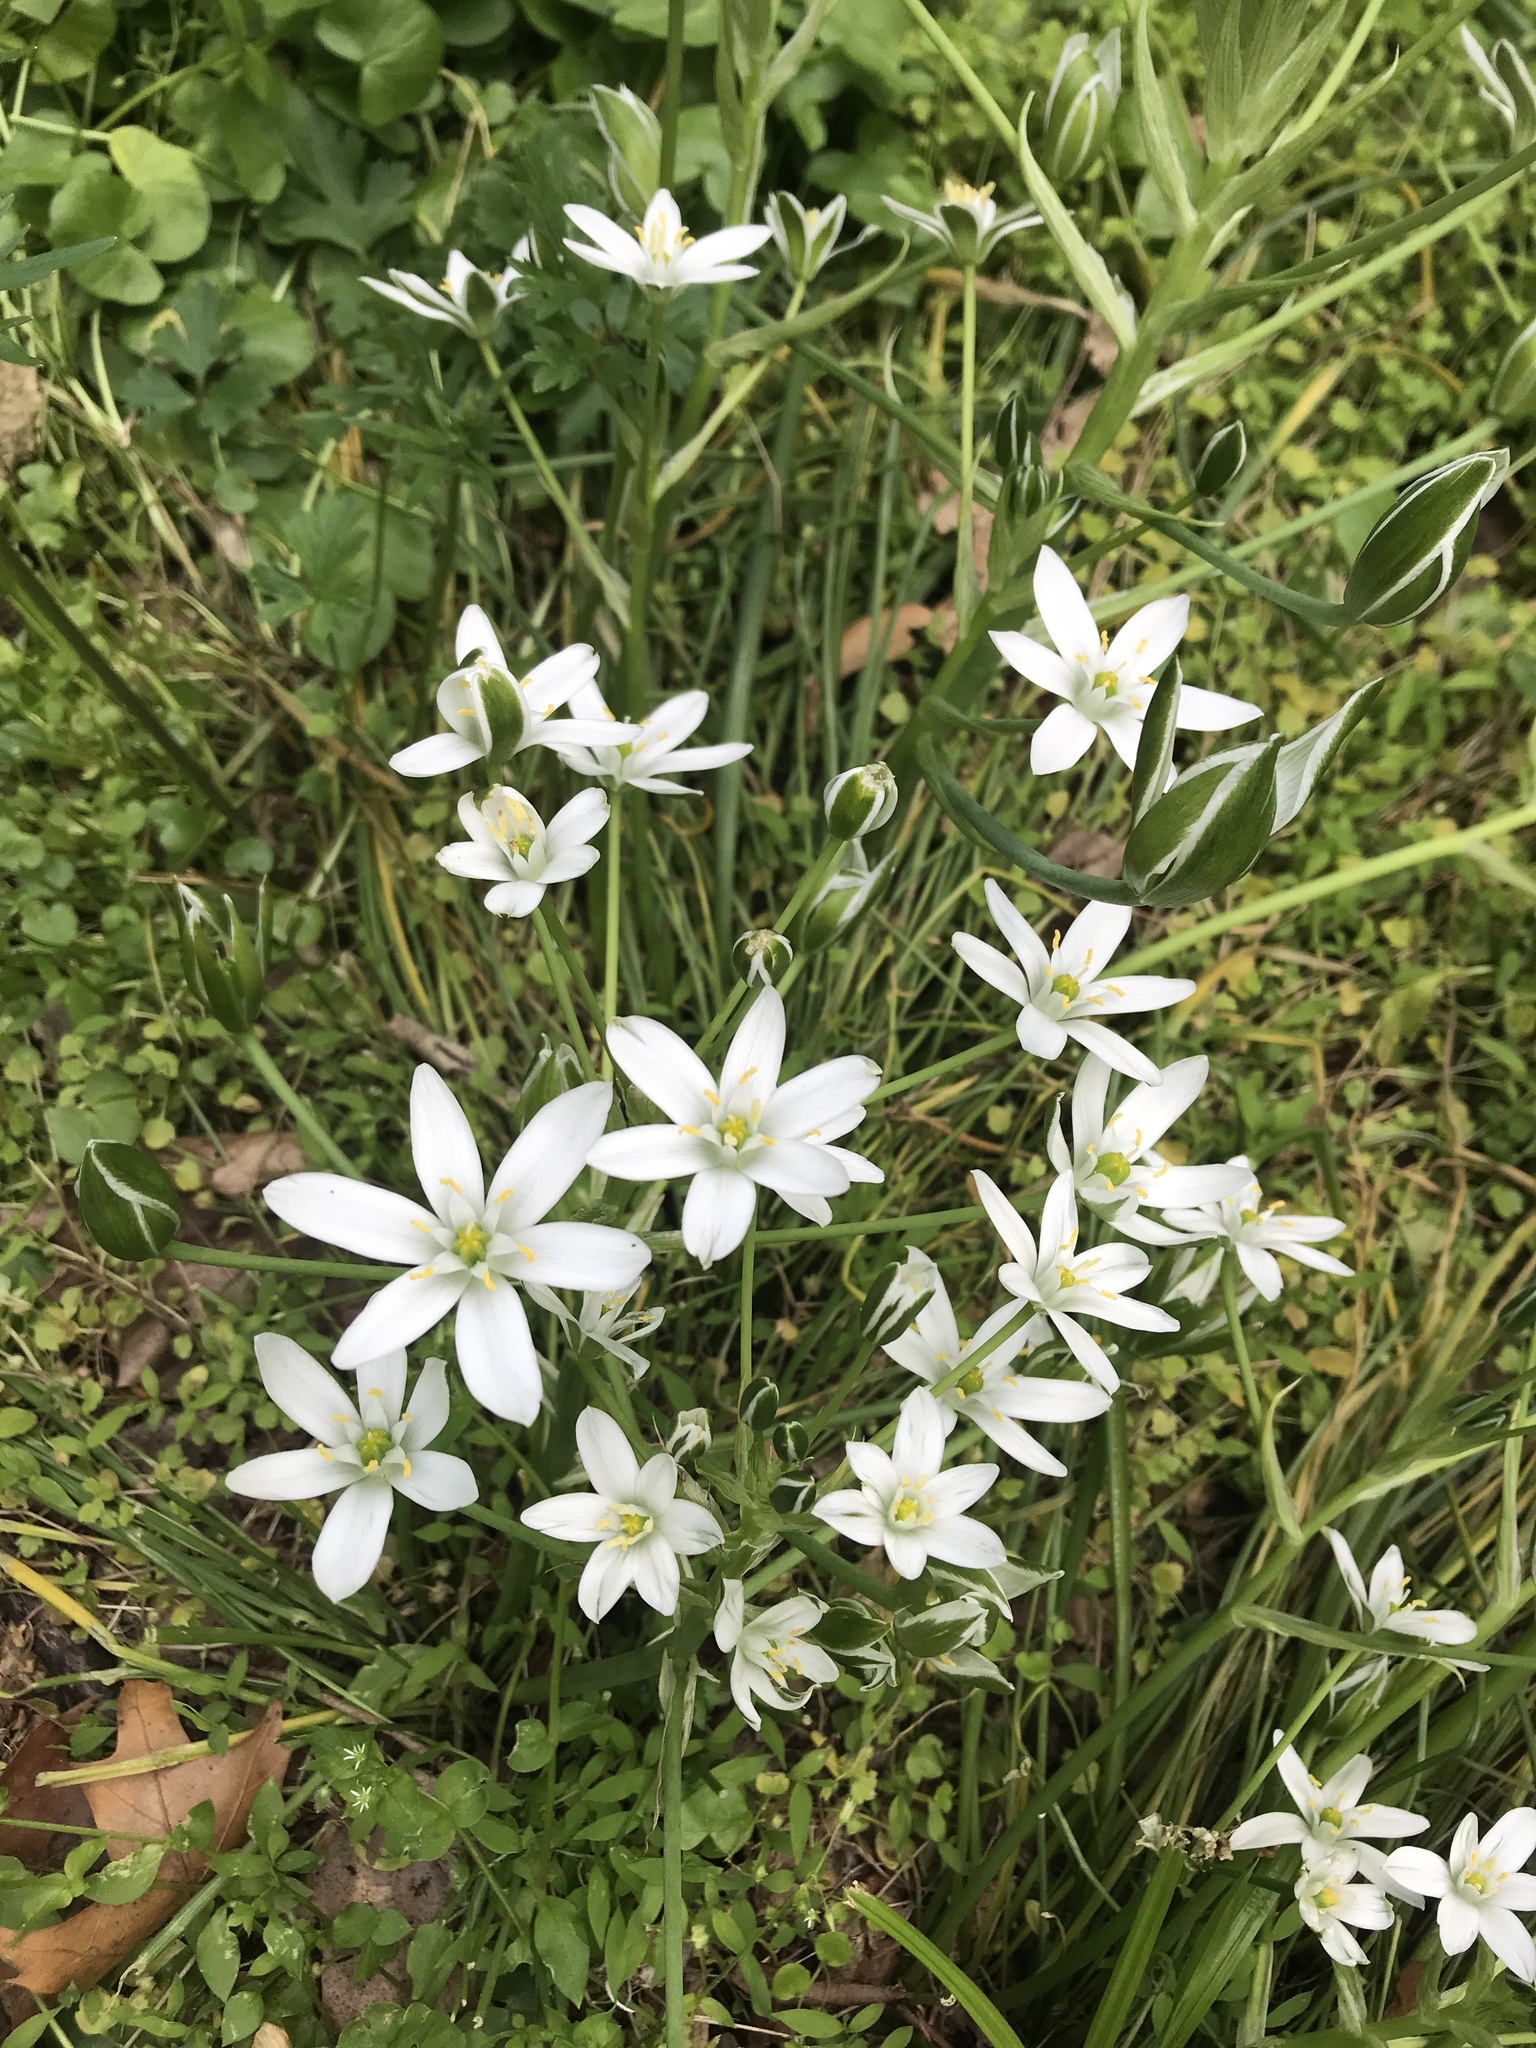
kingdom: Plantae
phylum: Tracheophyta
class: Liliopsida
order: Asparagales
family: Asparagaceae
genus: Ornithogalum
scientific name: Ornithogalum umbellatum
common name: Garden star-of-bethlehem
